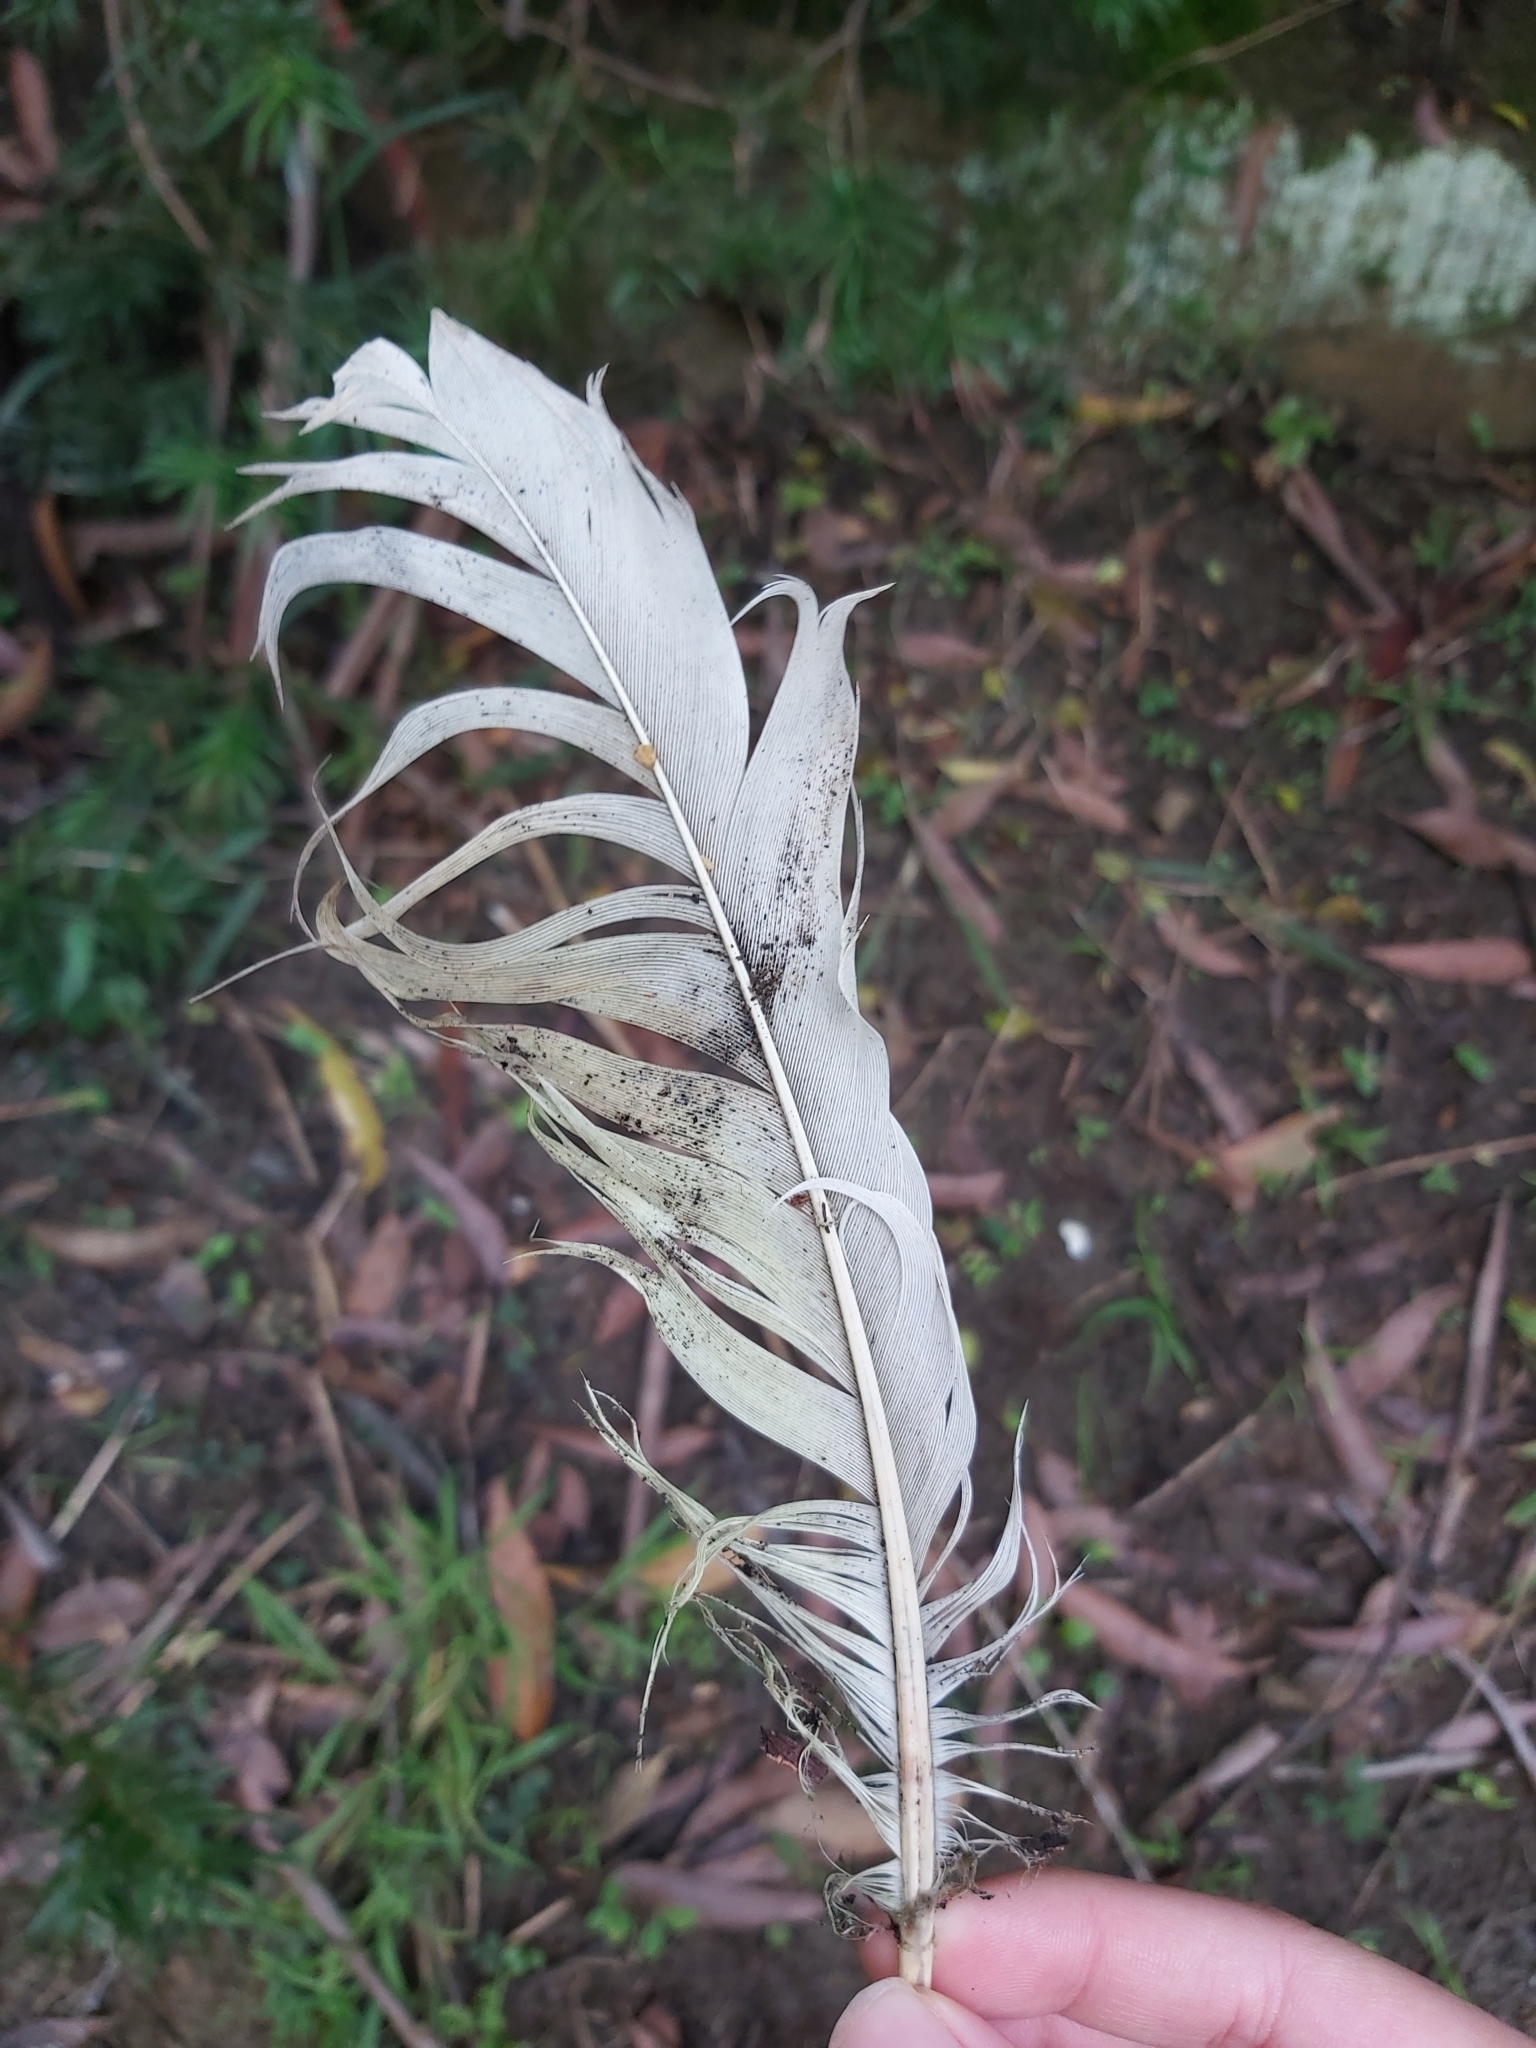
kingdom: Animalia
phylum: Chordata
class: Aves
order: Psittaciformes
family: Psittacidae
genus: Cacatua
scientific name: Cacatua galerita
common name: Sulphur-crested cockatoo
